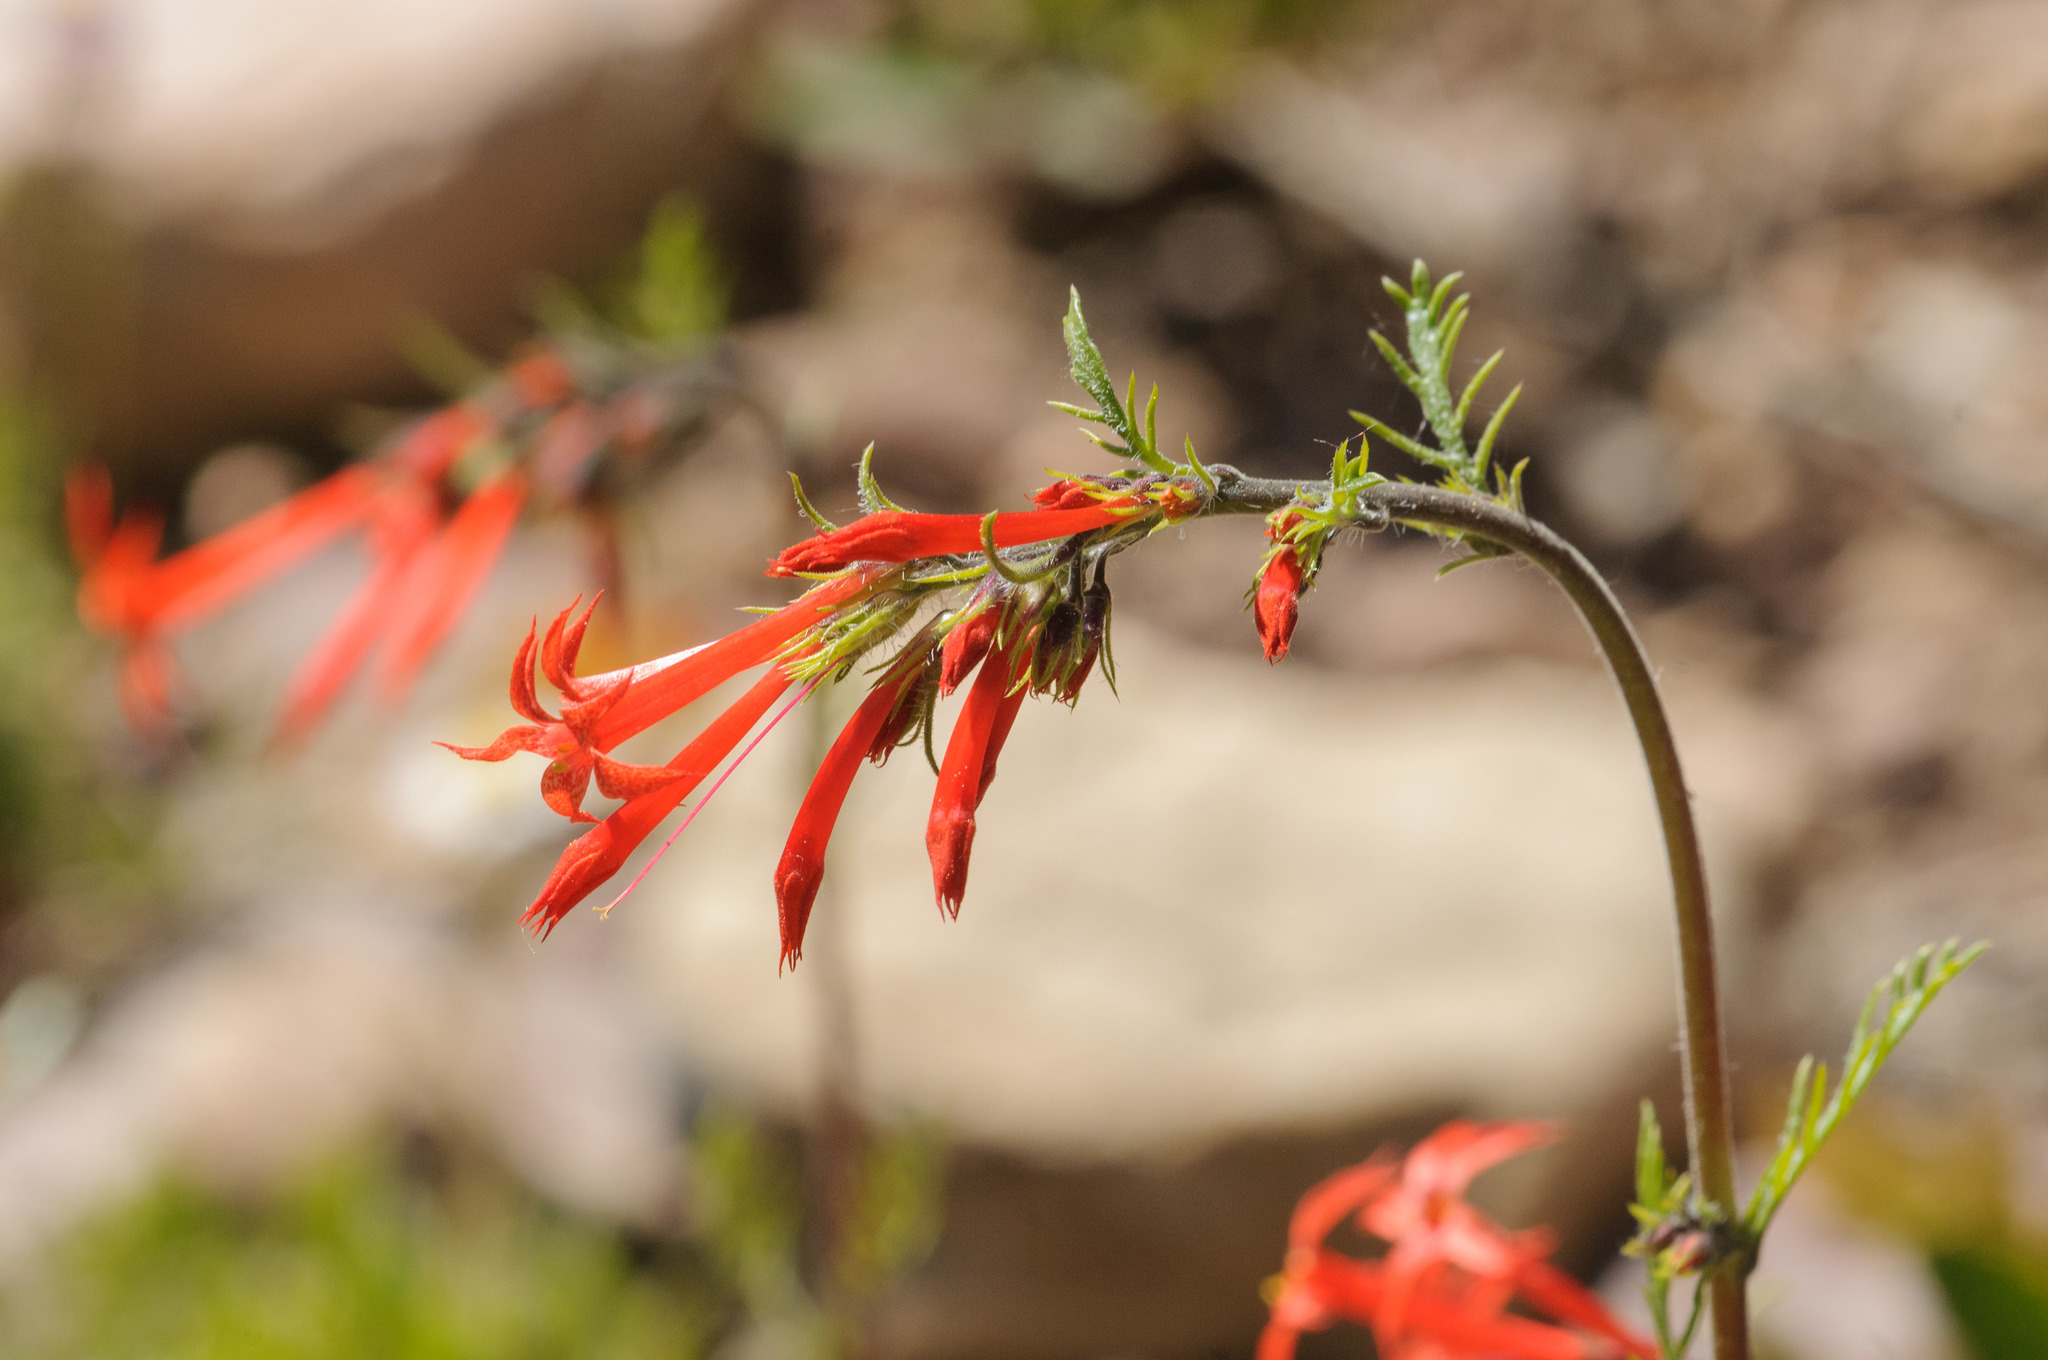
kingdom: Plantae
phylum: Tracheophyta
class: Magnoliopsida
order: Ericales
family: Polemoniaceae
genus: Ipomopsis
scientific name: Ipomopsis aggregata
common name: Scarlet gilia
